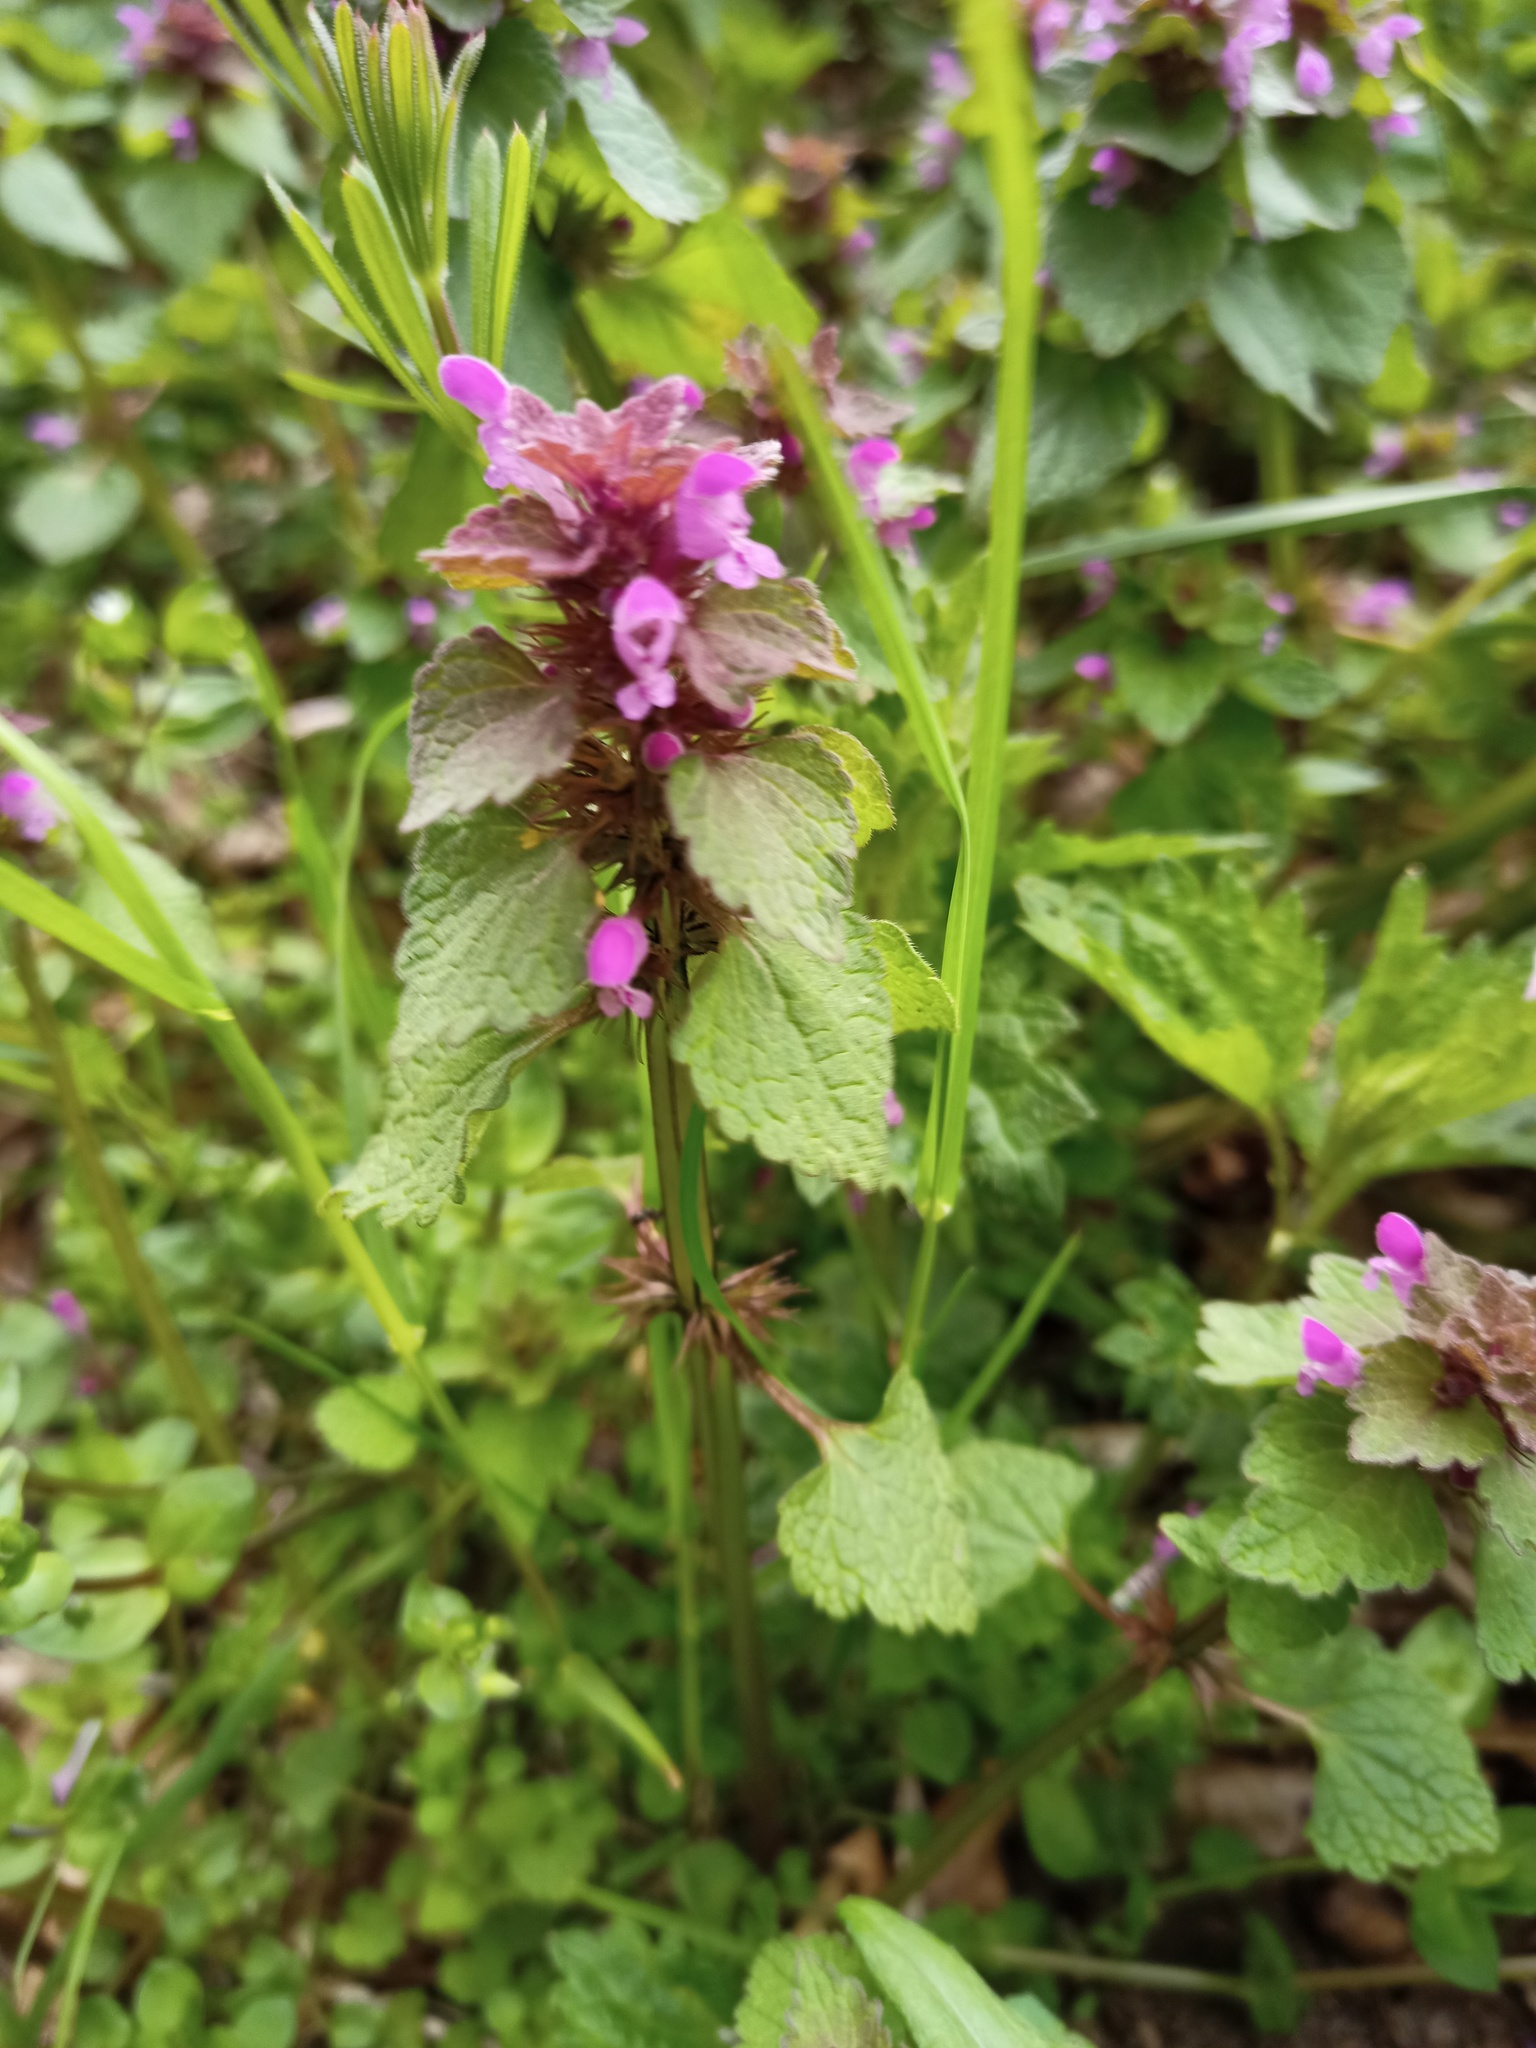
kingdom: Plantae
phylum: Tracheophyta
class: Magnoliopsida
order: Lamiales
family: Lamiaceae
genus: Lamium
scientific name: Lamium purpureum
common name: Red dead-nettle
